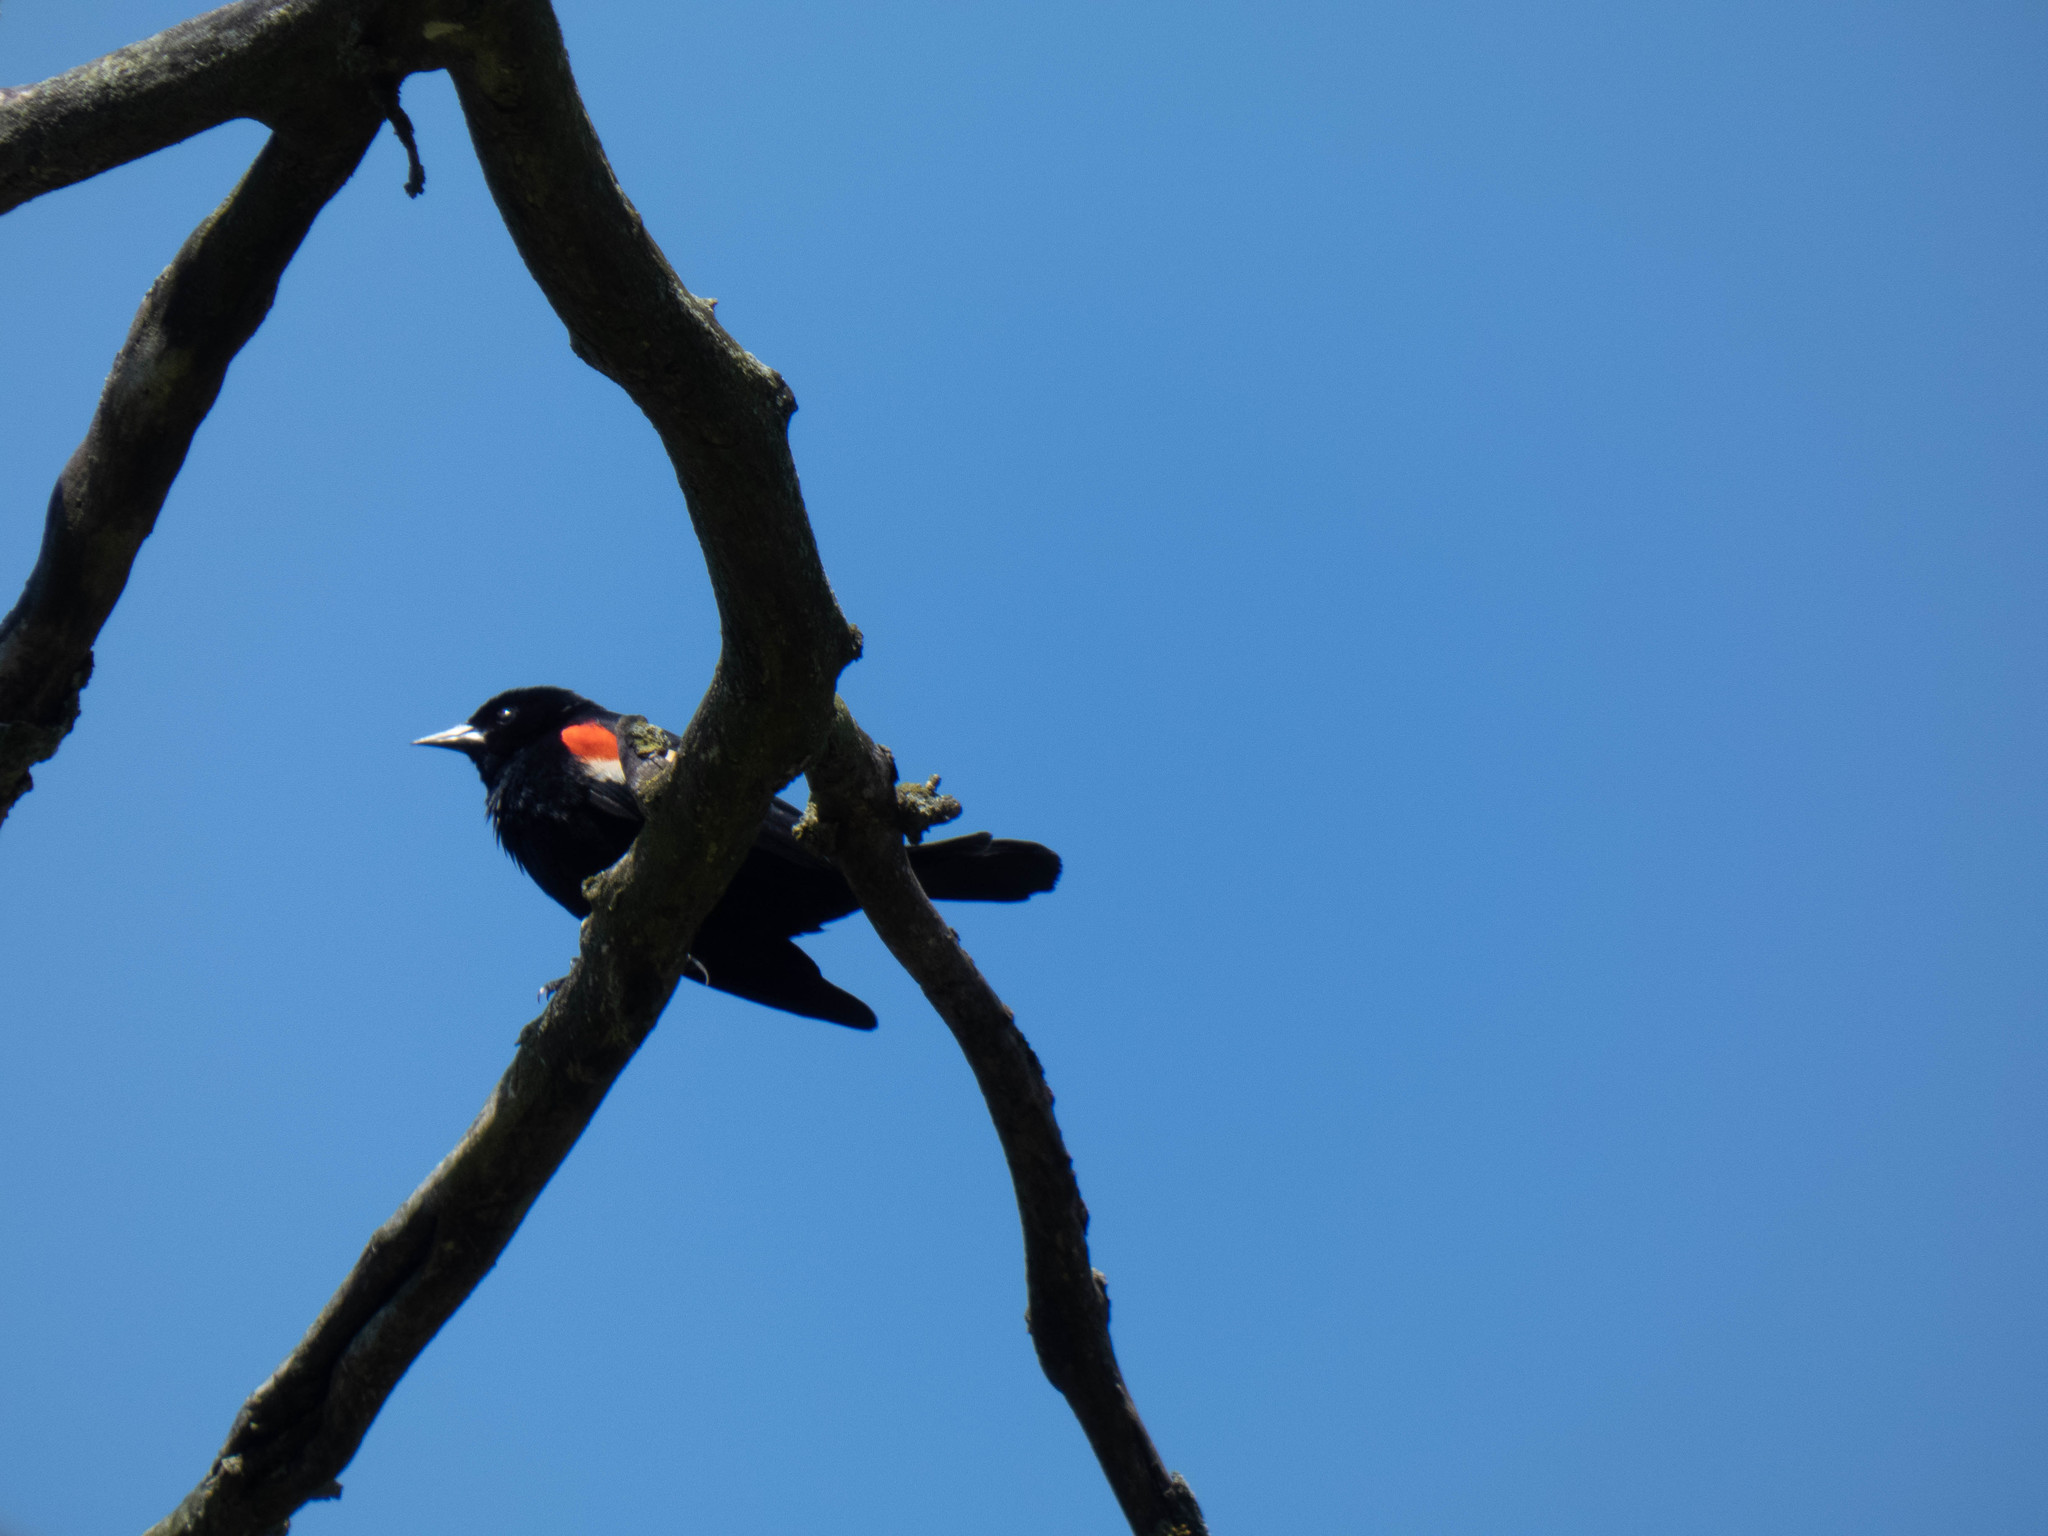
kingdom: Animalia
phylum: Chordata
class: Aves
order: Passeriformes
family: Icteridae
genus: Agelaius
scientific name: Agelaius phoeniceus
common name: Red-winged blackbird
